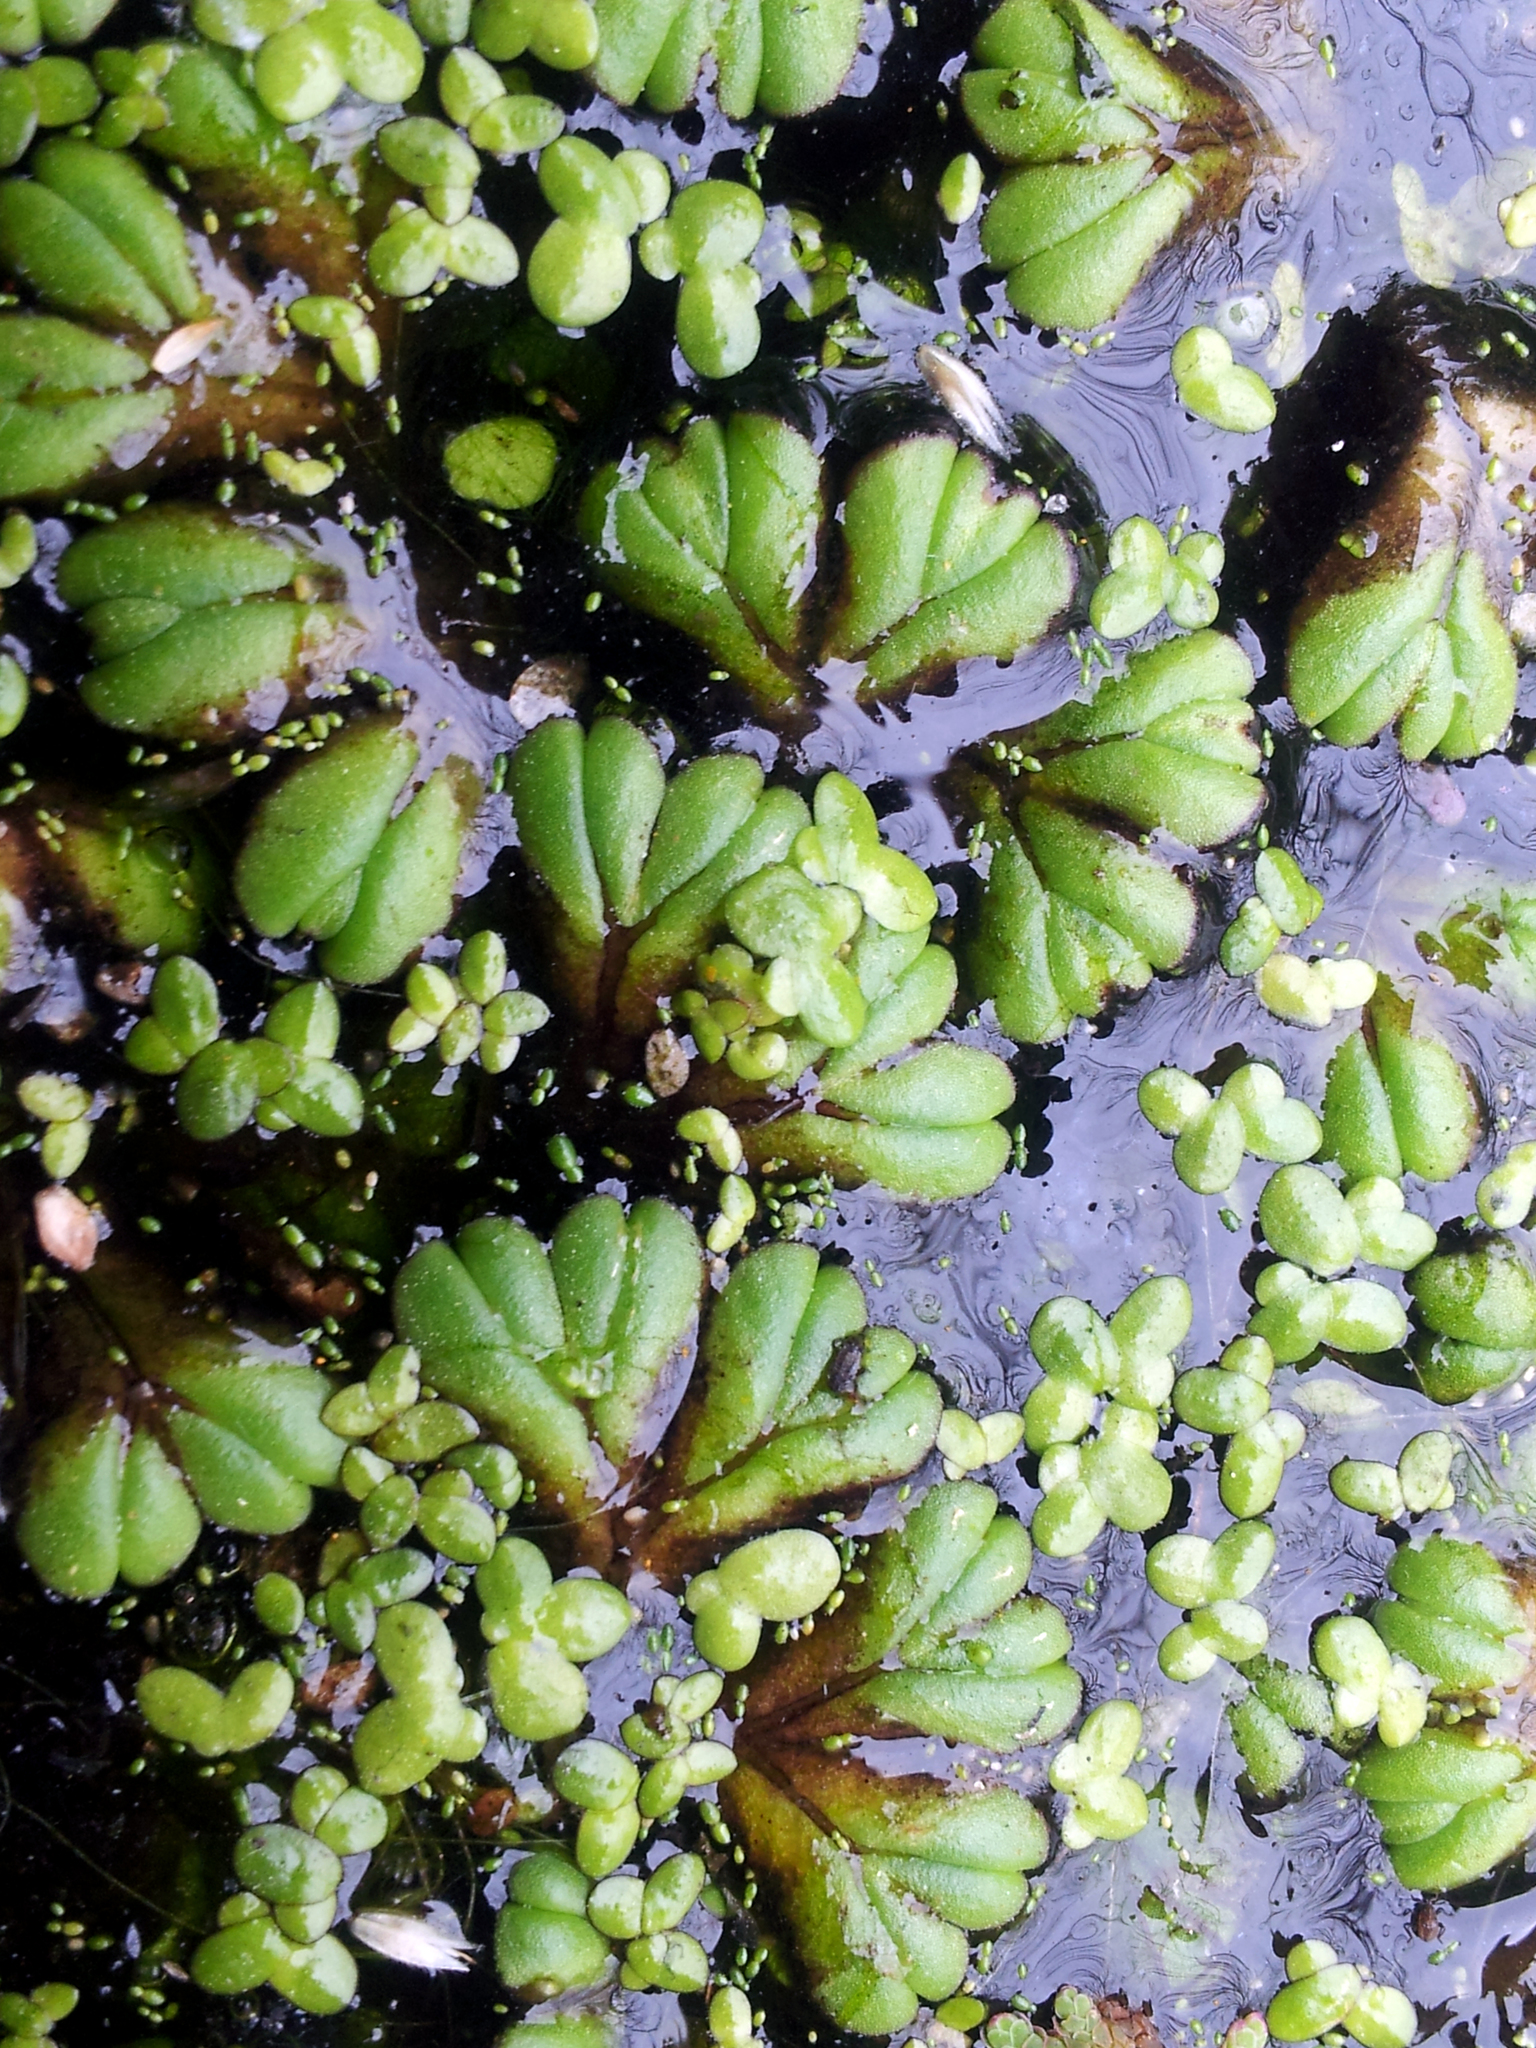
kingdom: Plantae
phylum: Marchantiophyta
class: Marchantiopsida
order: Marchantiales
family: Ricciaceae
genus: Ricciocarpos
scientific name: Ricciocarpos natans
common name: Purple-fringed liverwort
